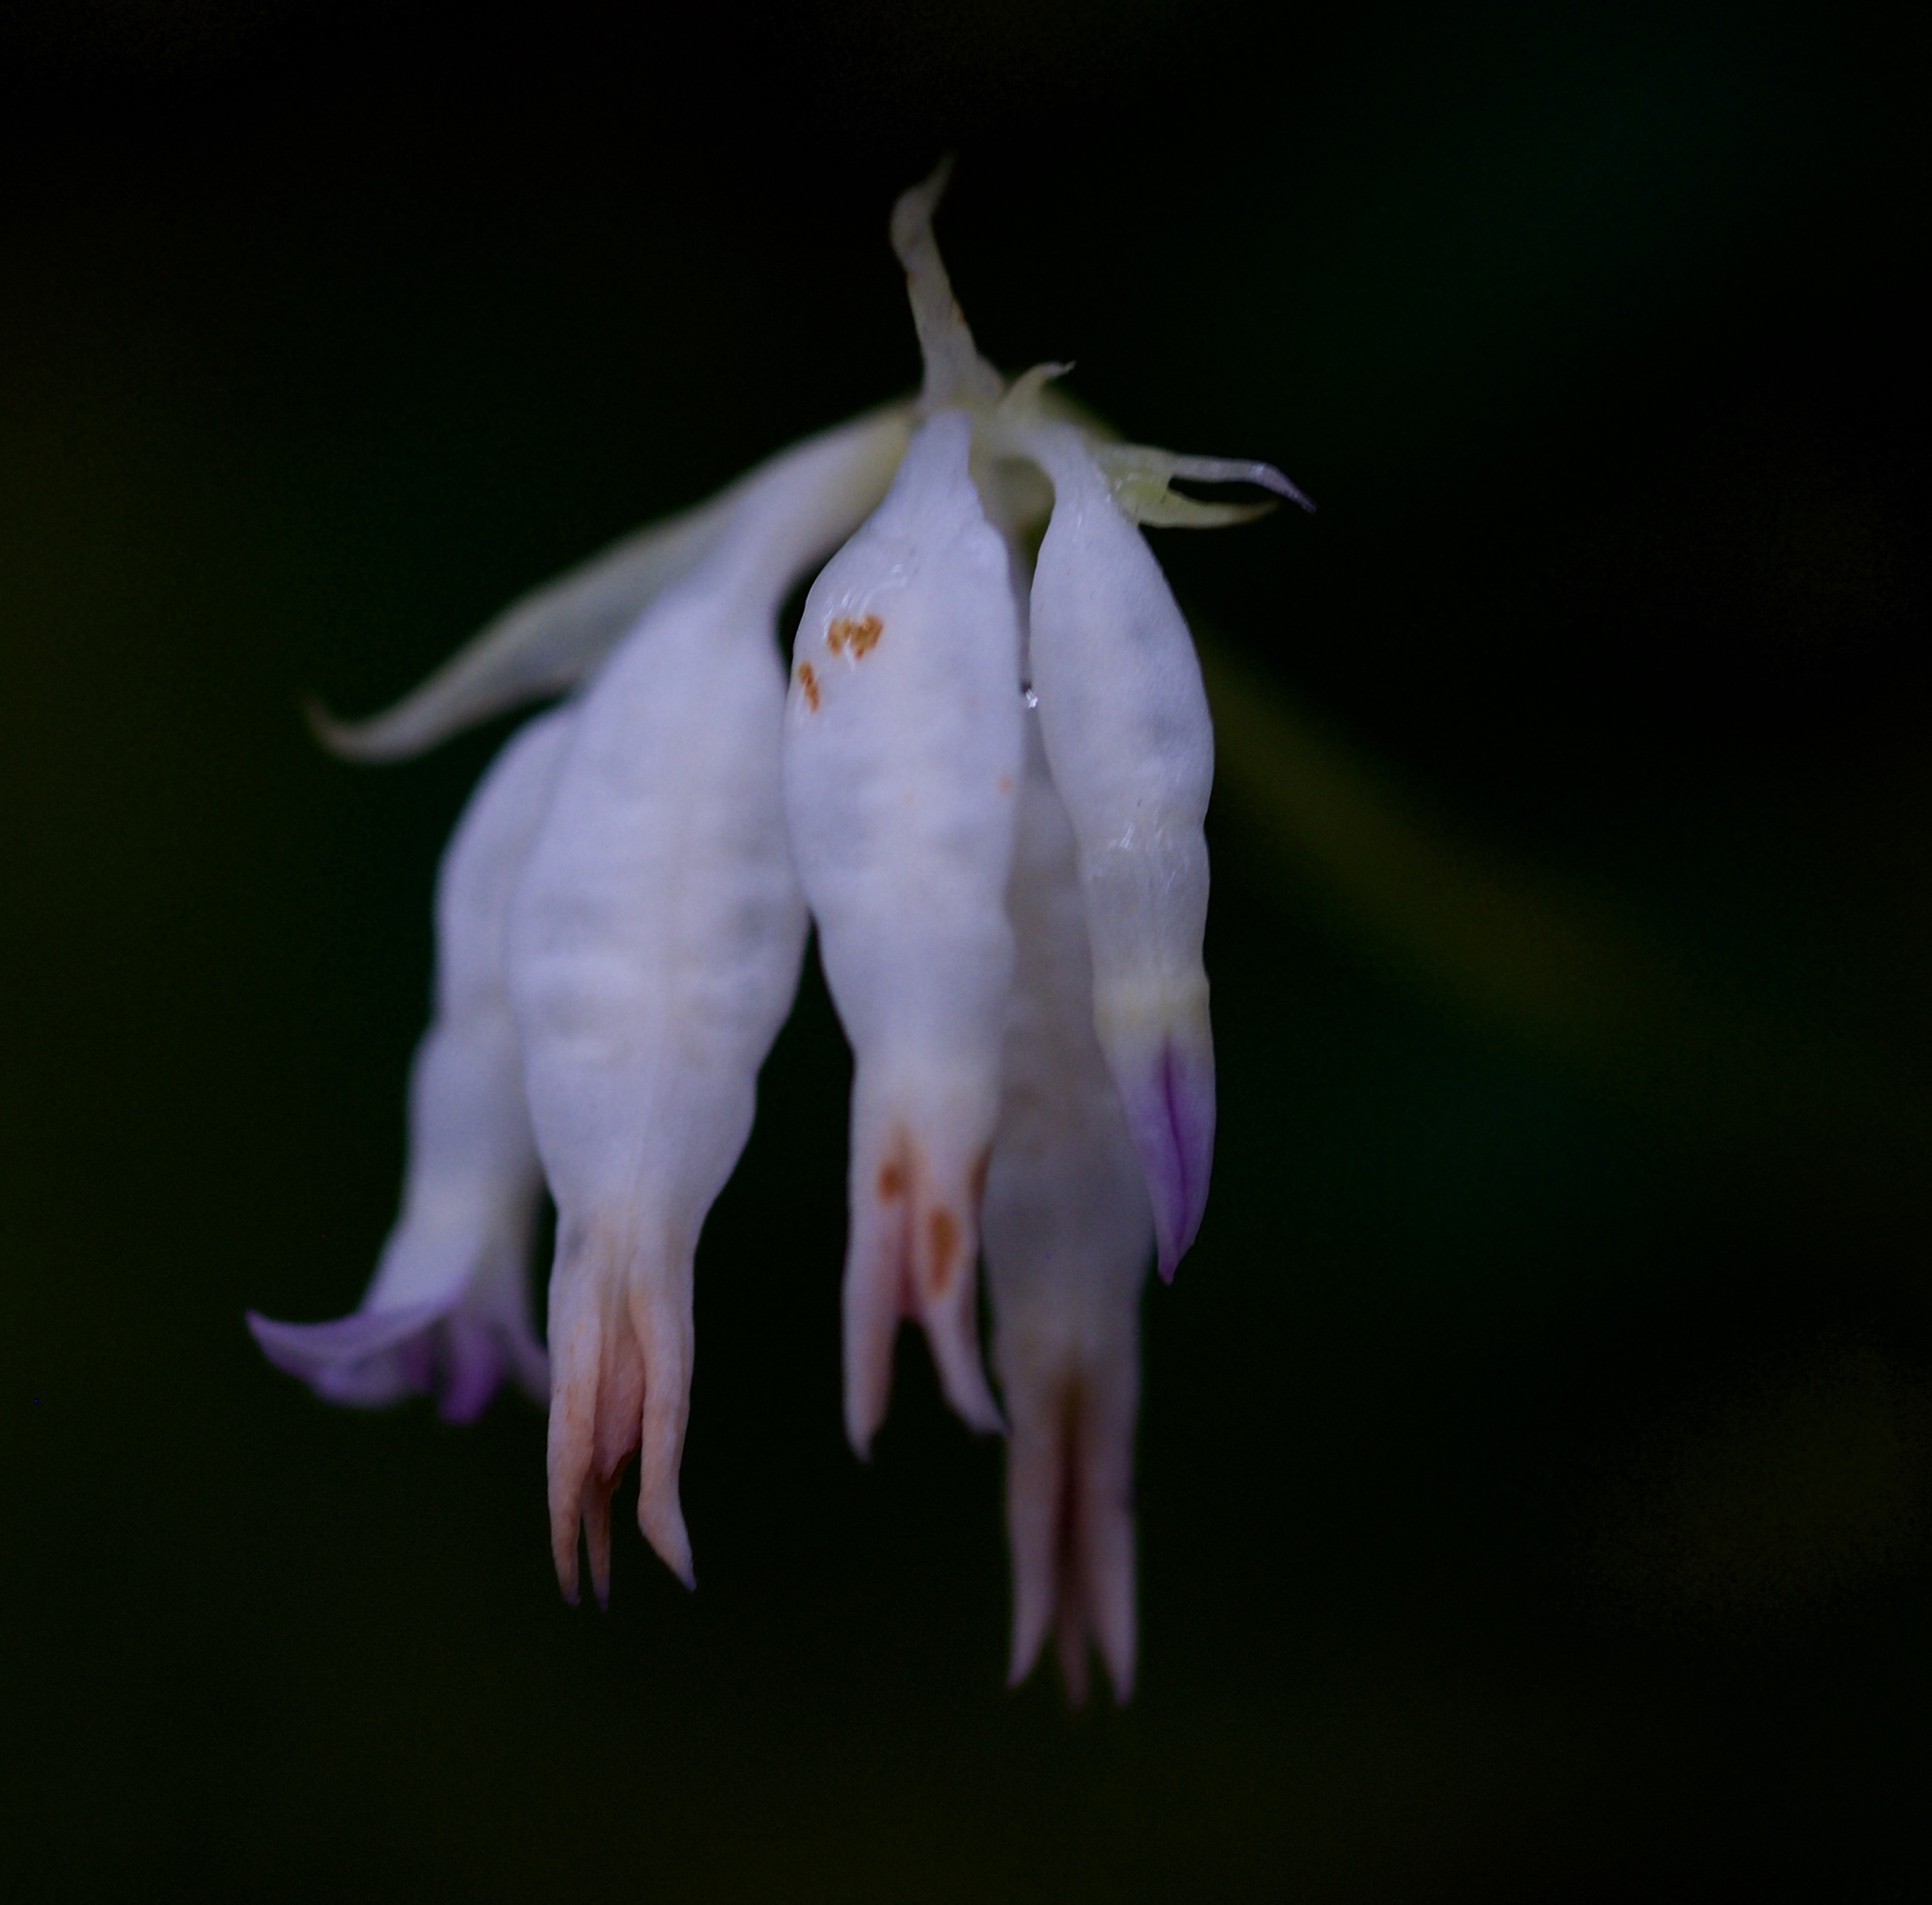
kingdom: Plantae
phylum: Tracheophyta
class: Liliopsida
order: Dioscoreales
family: Burmanniaceae
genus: Burmannia
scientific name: Burmannia longifolia
